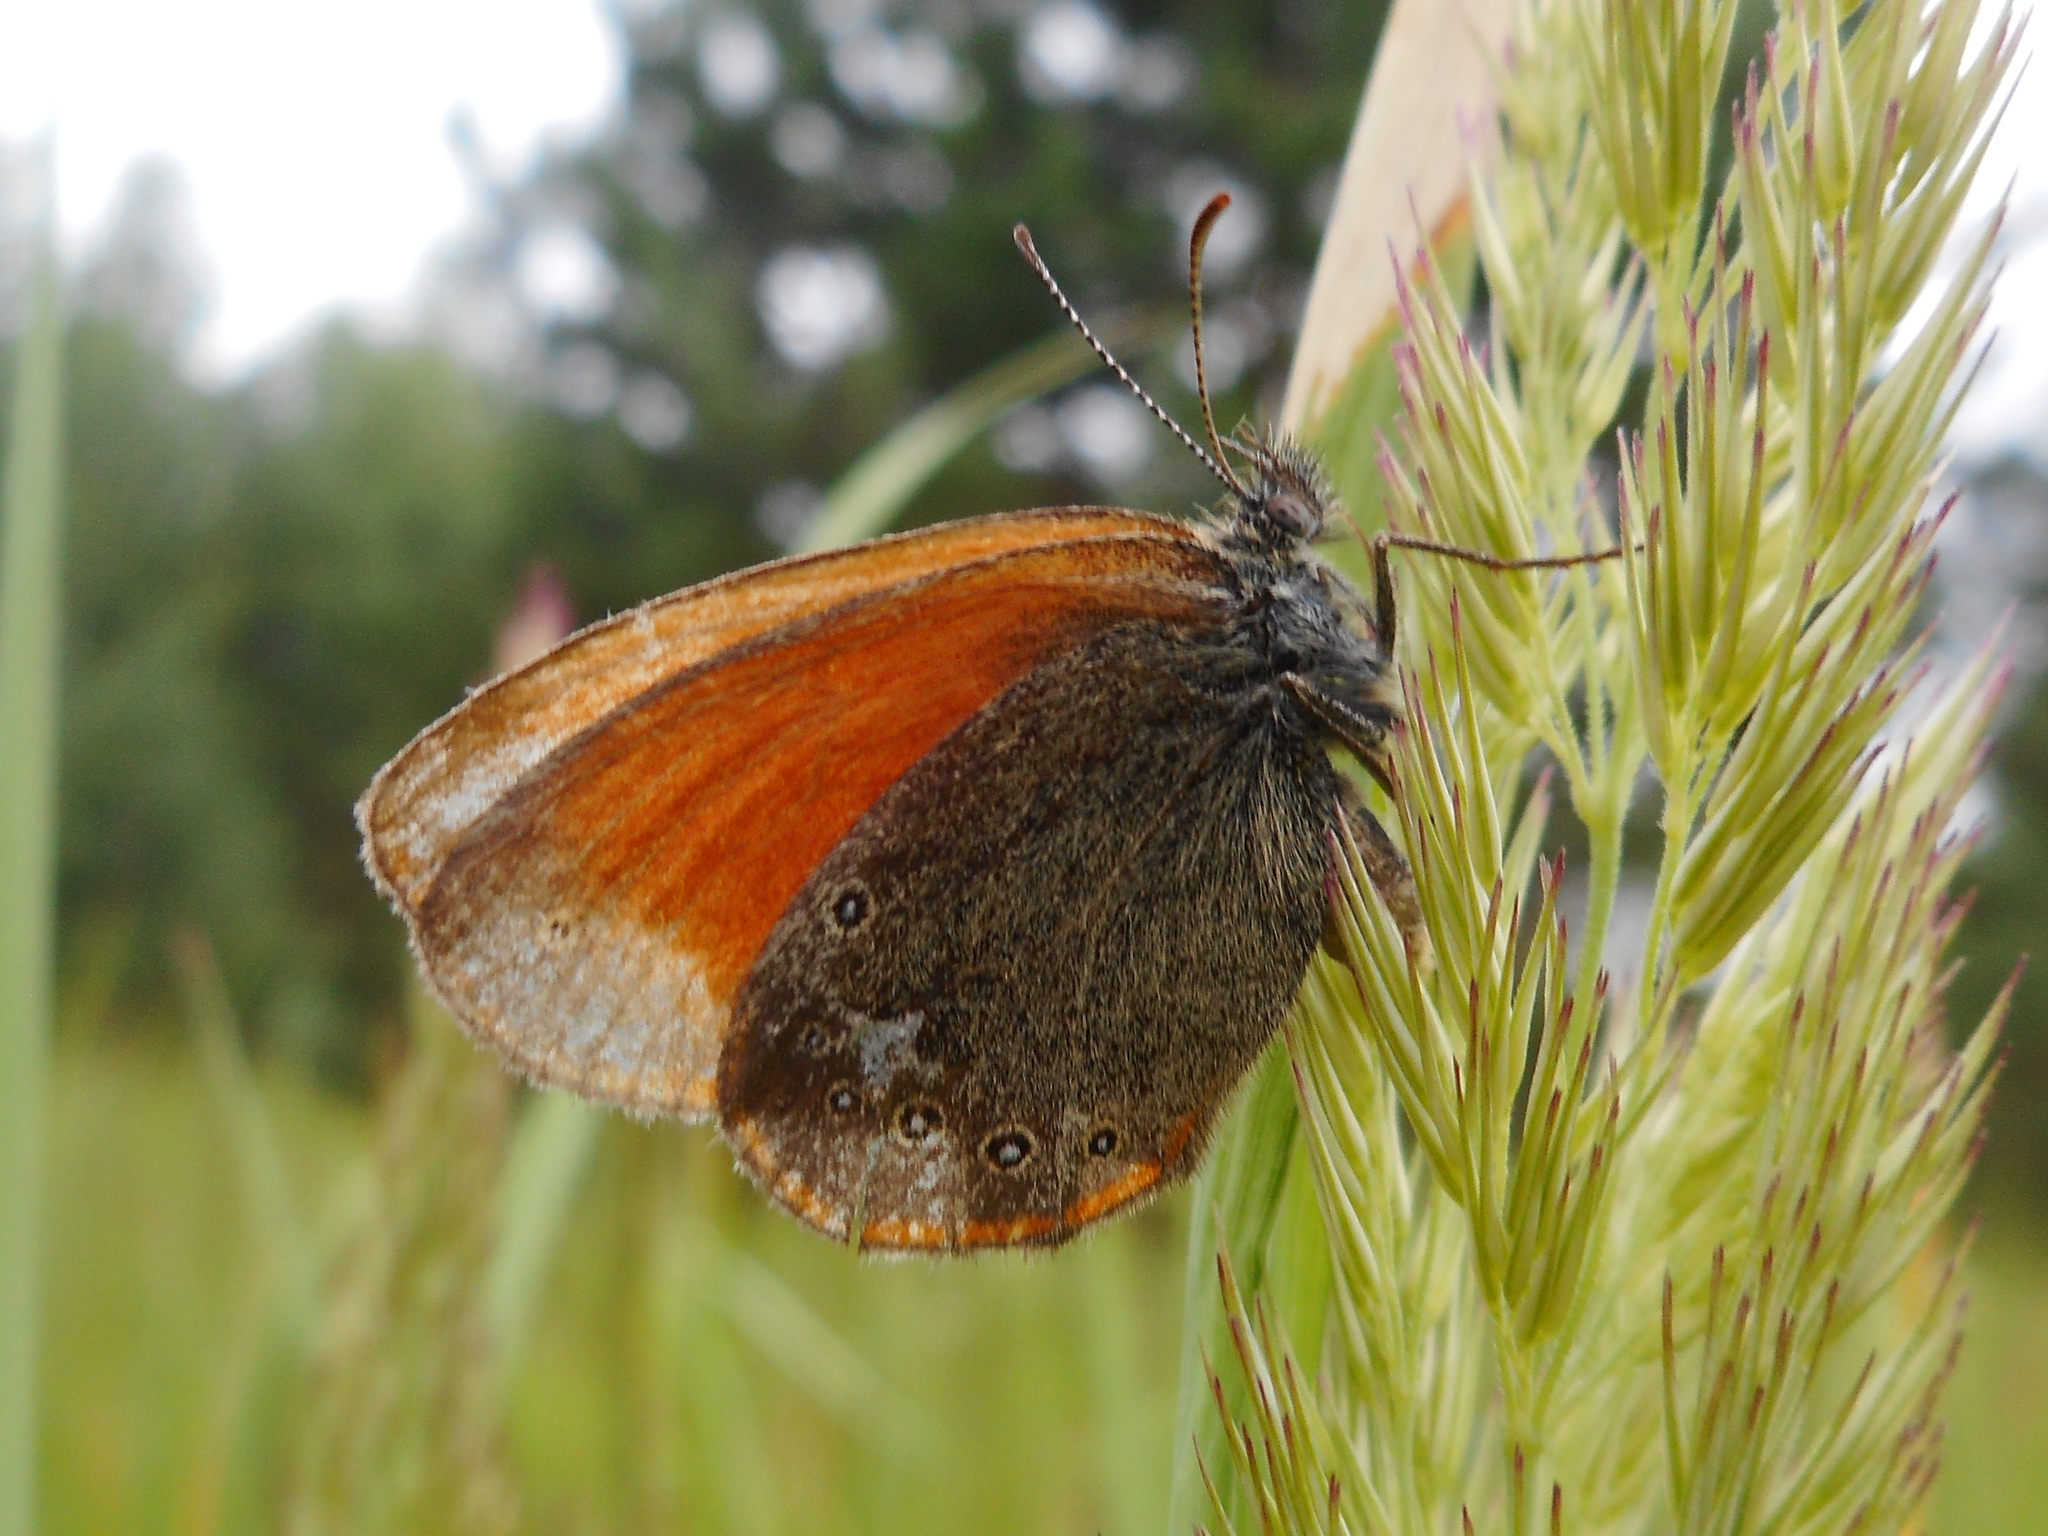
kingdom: Animalia
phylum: Arthropoda
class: Insecta
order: Lepidoptera
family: Nymphalidae
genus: Coenonympha
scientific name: Coenonympha iphis
